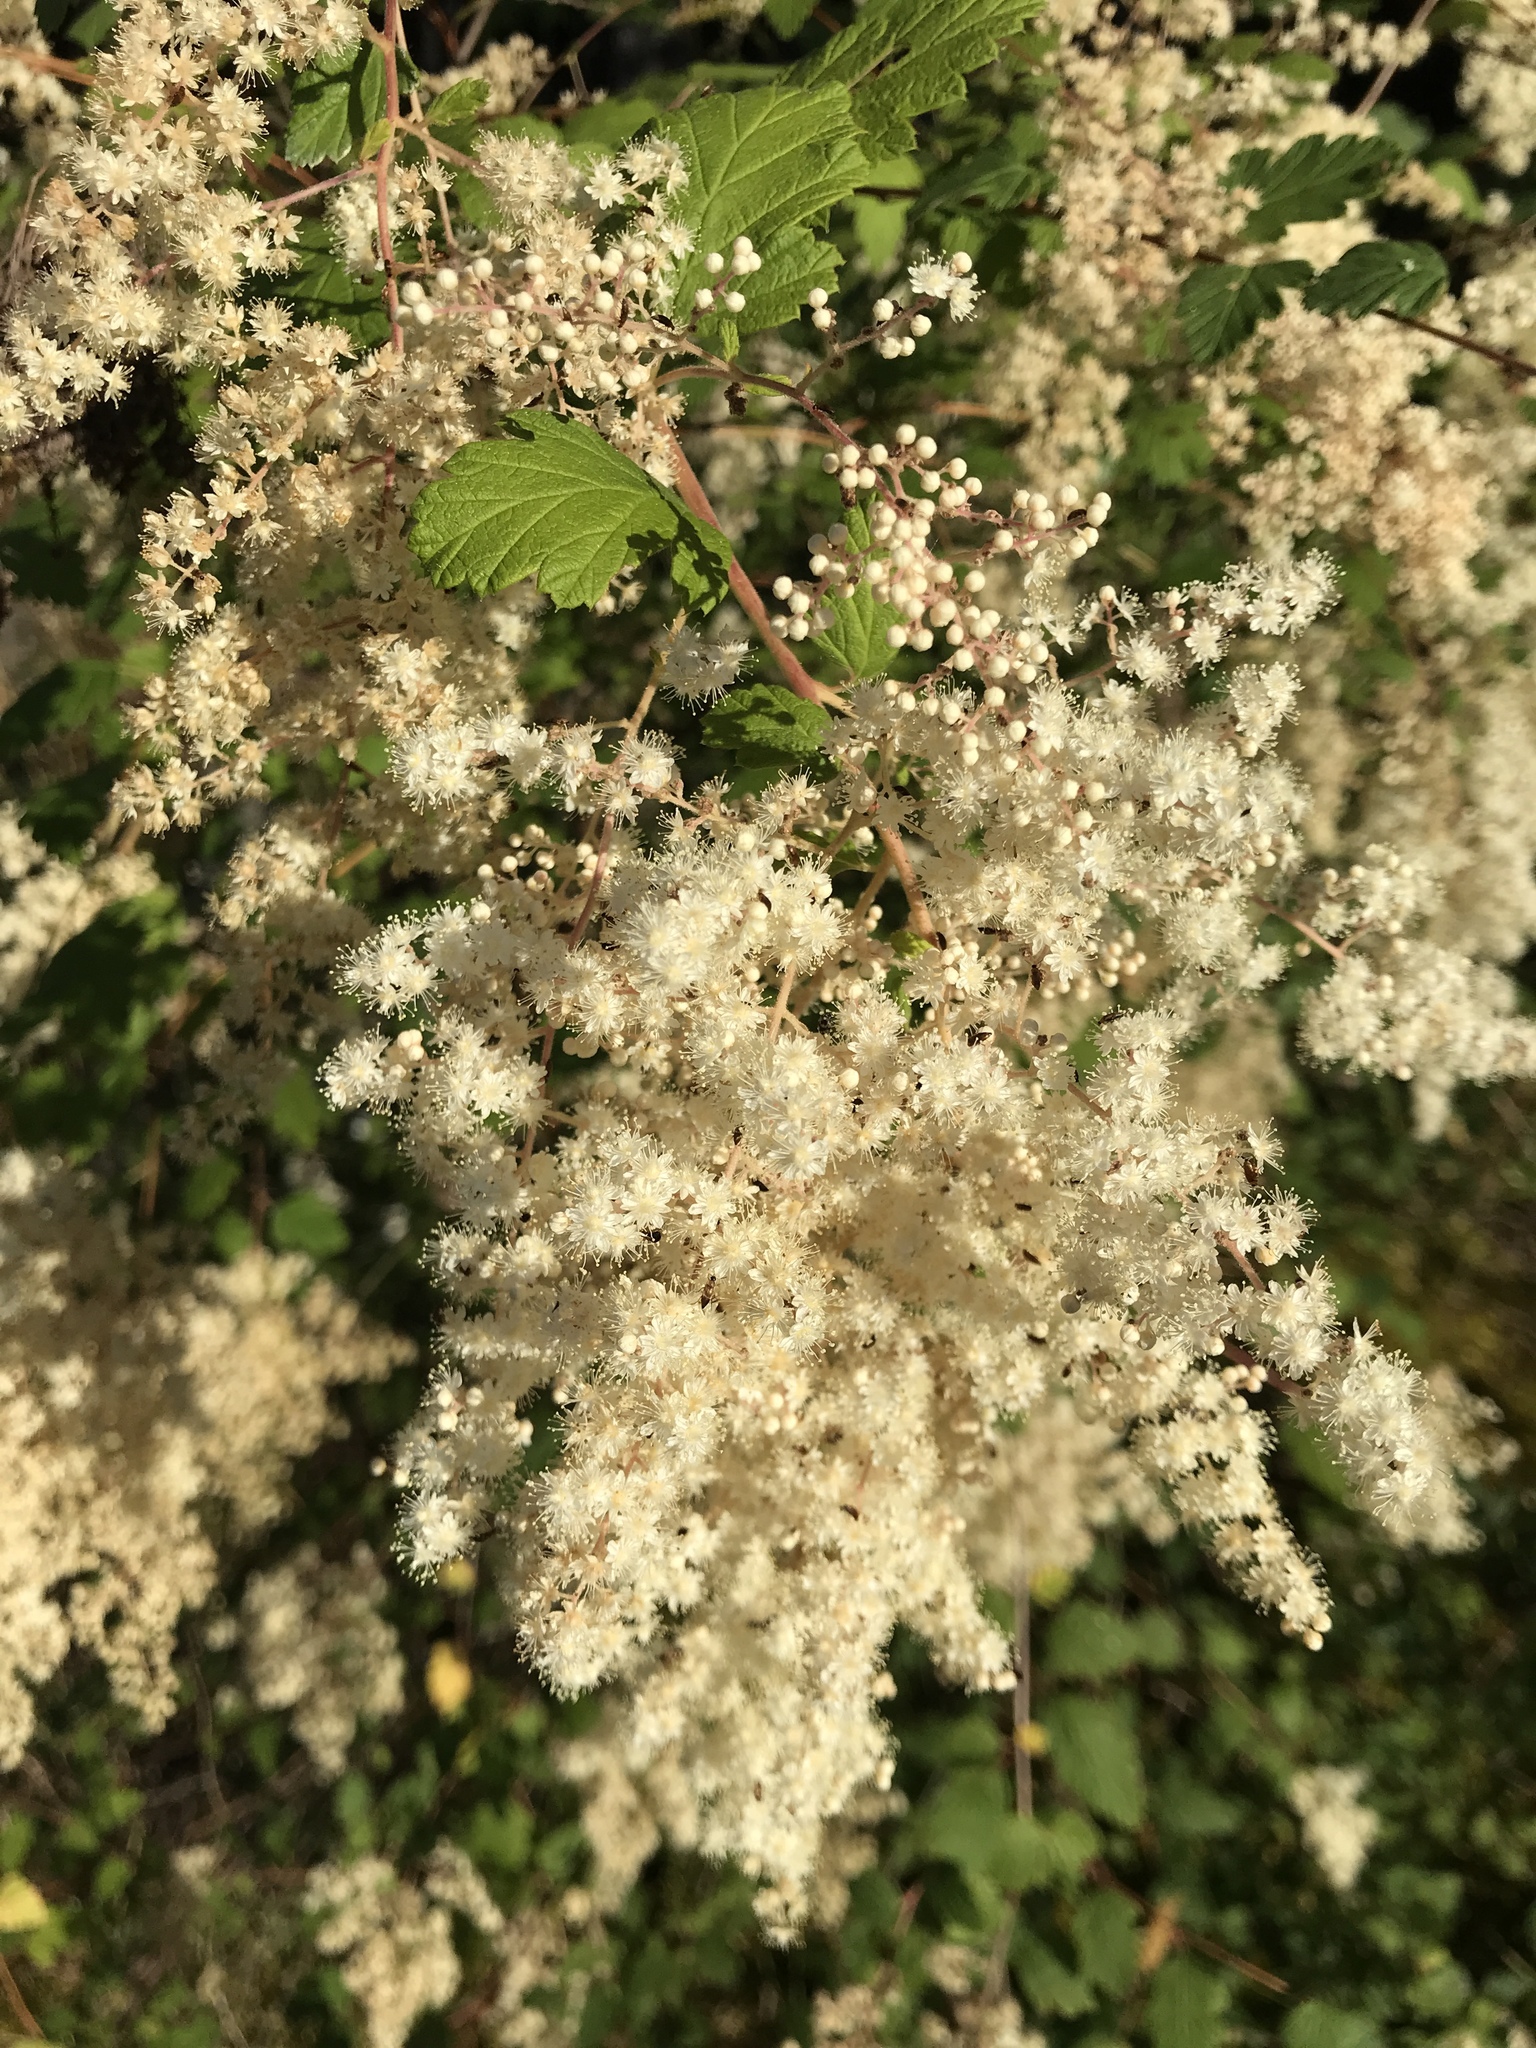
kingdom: Plantae
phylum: Tracheophyta
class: Magnoliopsida
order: Rosales
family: Rosaceae
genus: Holodiscus
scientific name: Holodiscus discolor
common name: Oceanspray
